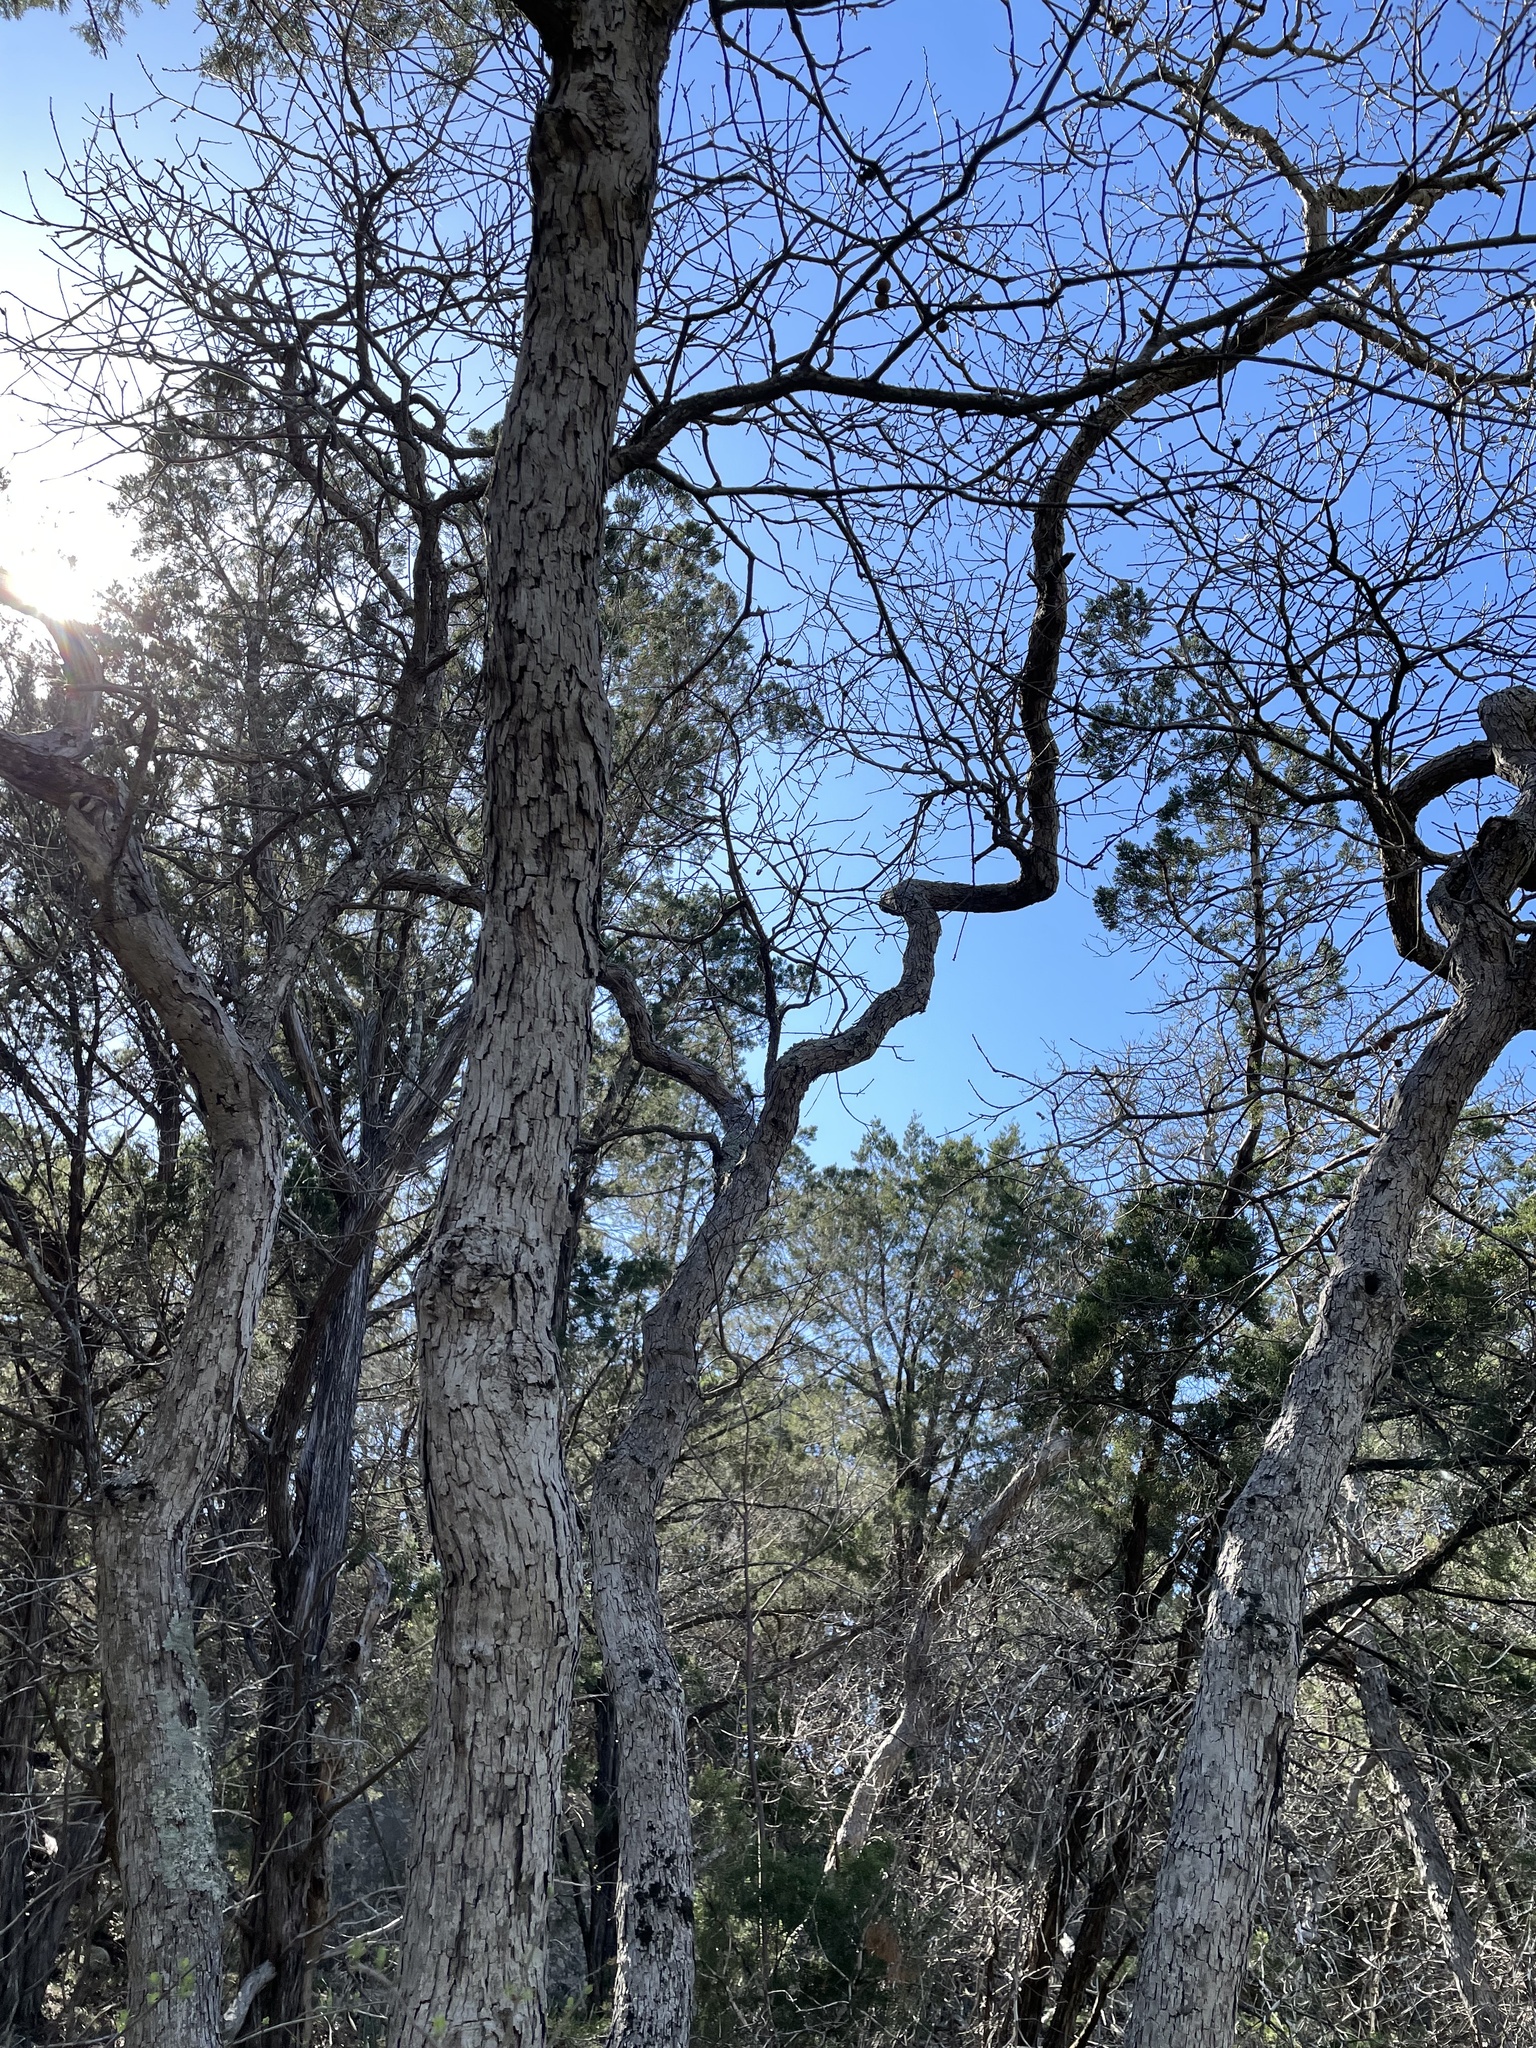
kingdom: Plantae
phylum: Tracheophyta
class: Magnoliopsida
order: Fagales
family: Fagaceae
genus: Quercus
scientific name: Quercus sinuata
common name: Durand oak
